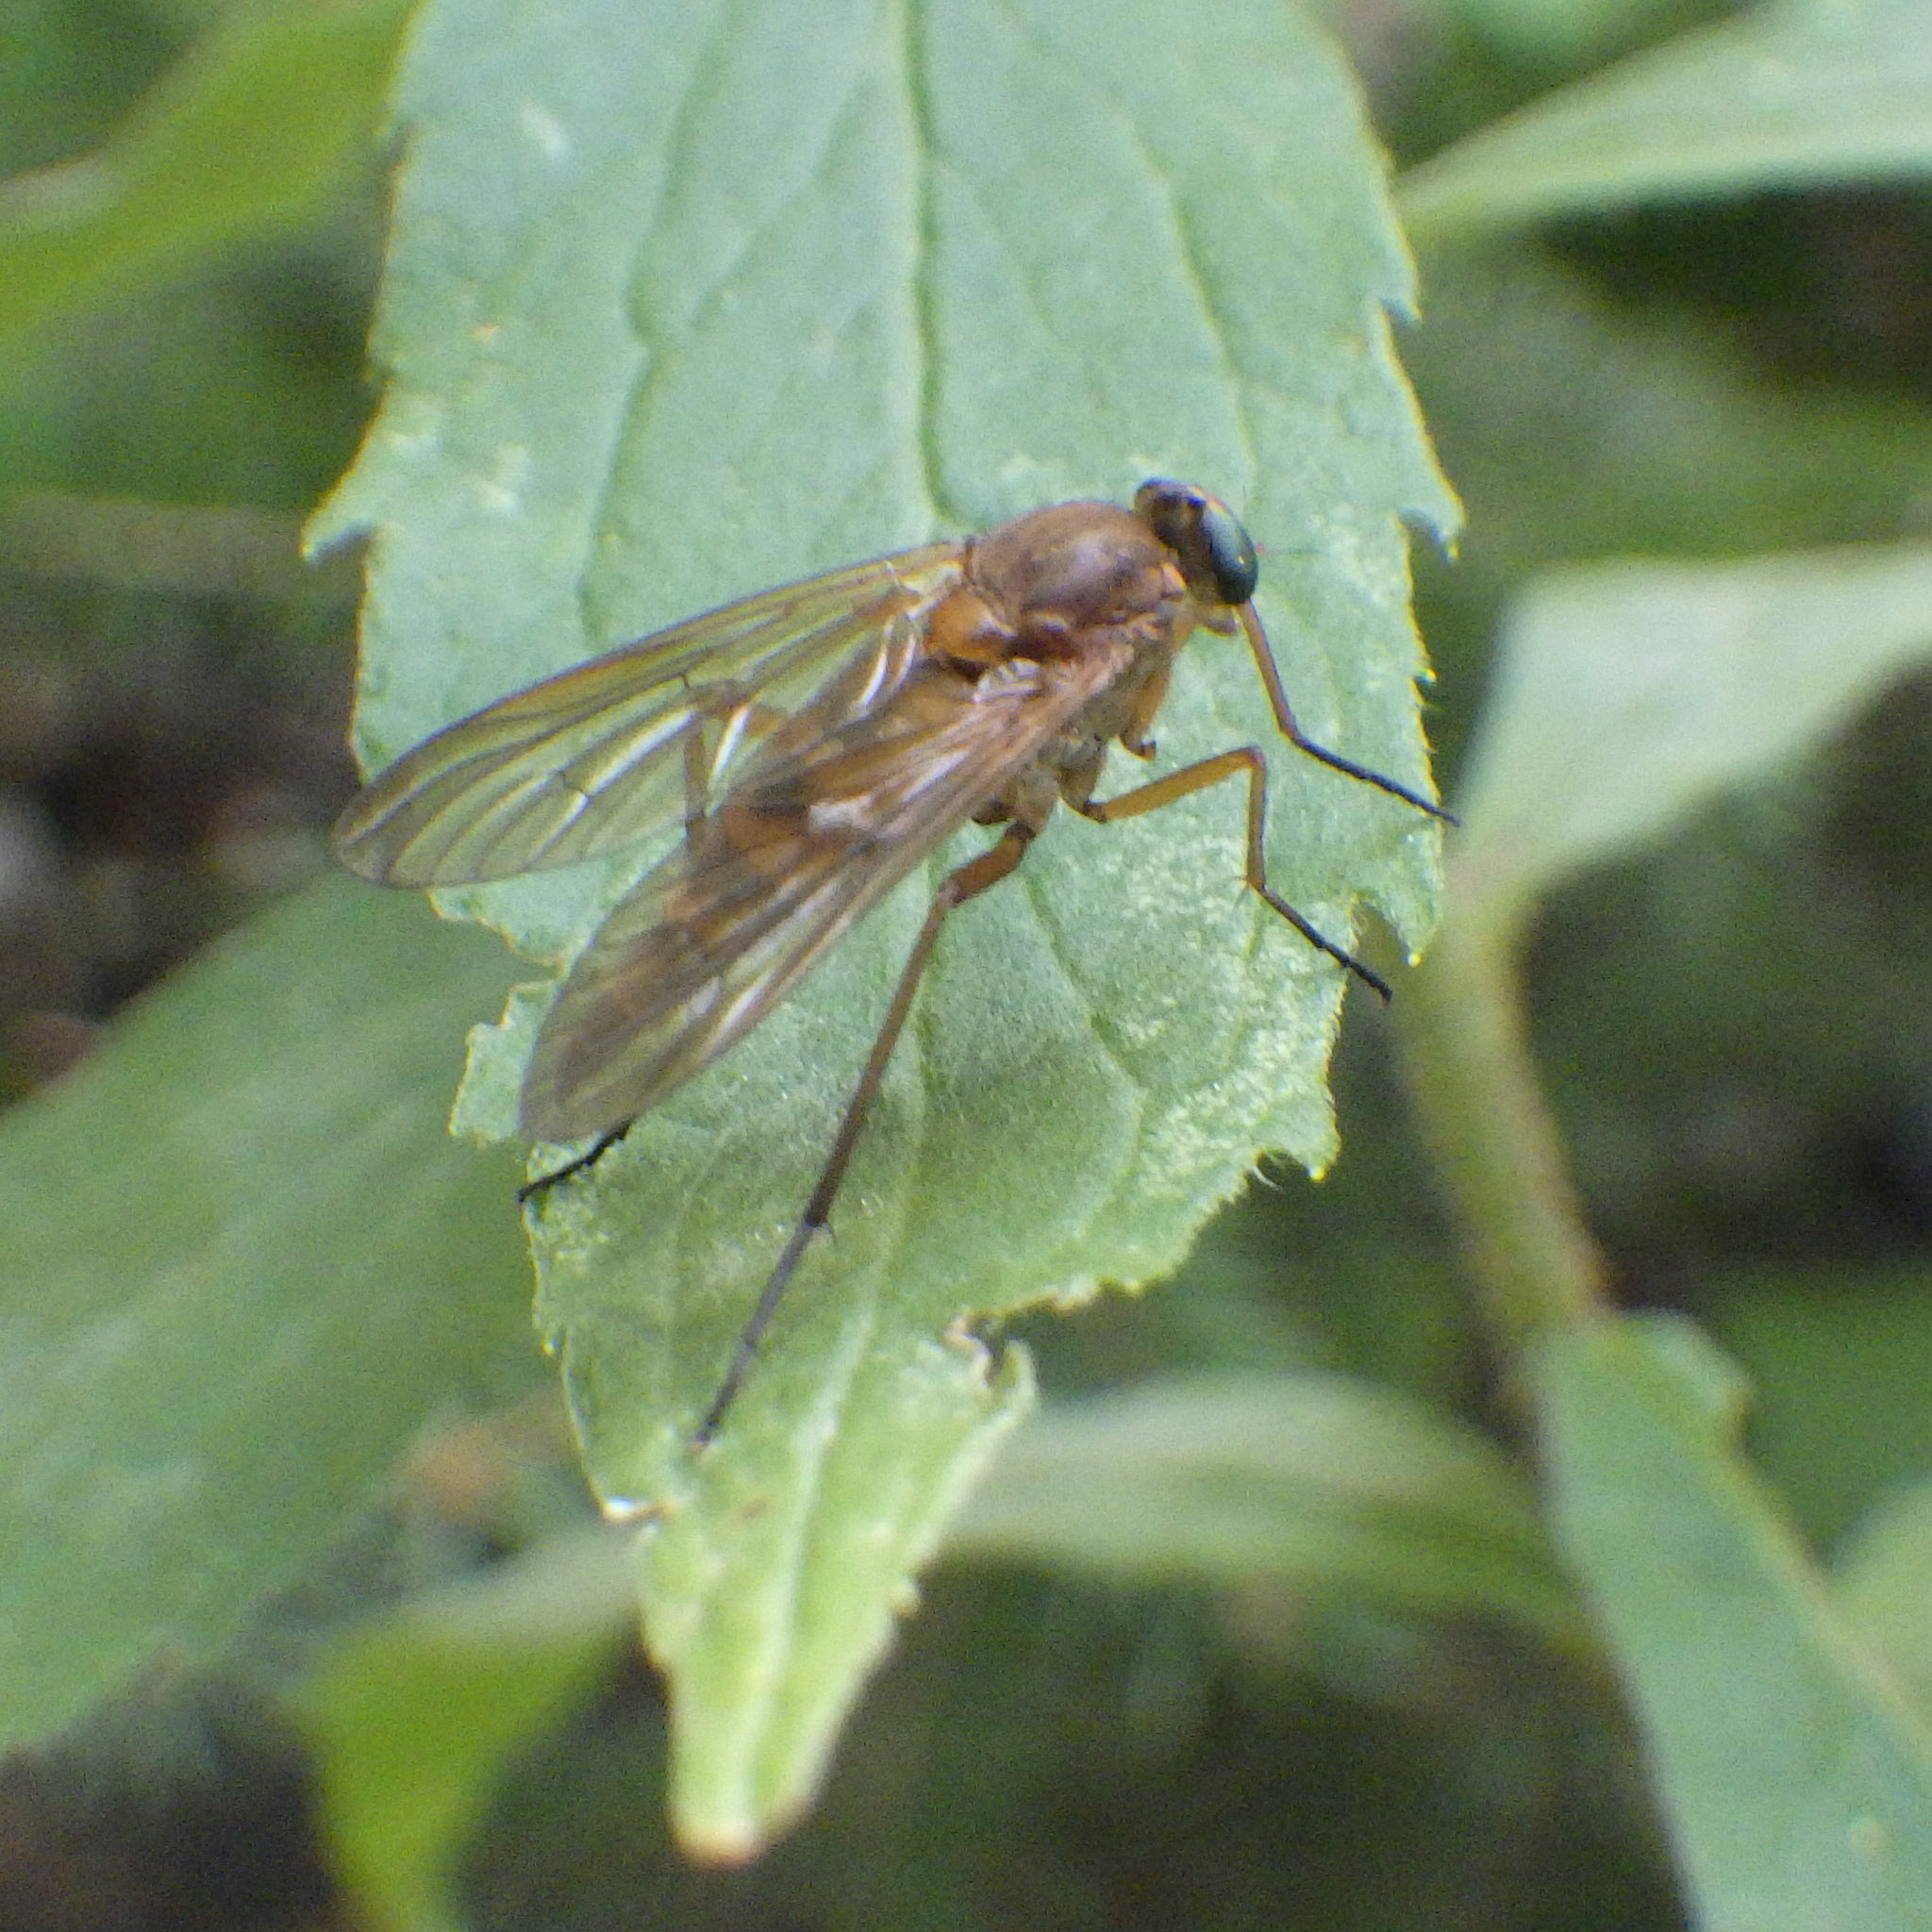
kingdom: Animalia
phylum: Arthropoda
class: Insecta
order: Diptera
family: Rhagionidae
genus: Rhagio
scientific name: Rhagio tringaria
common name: Marsh snipefly
